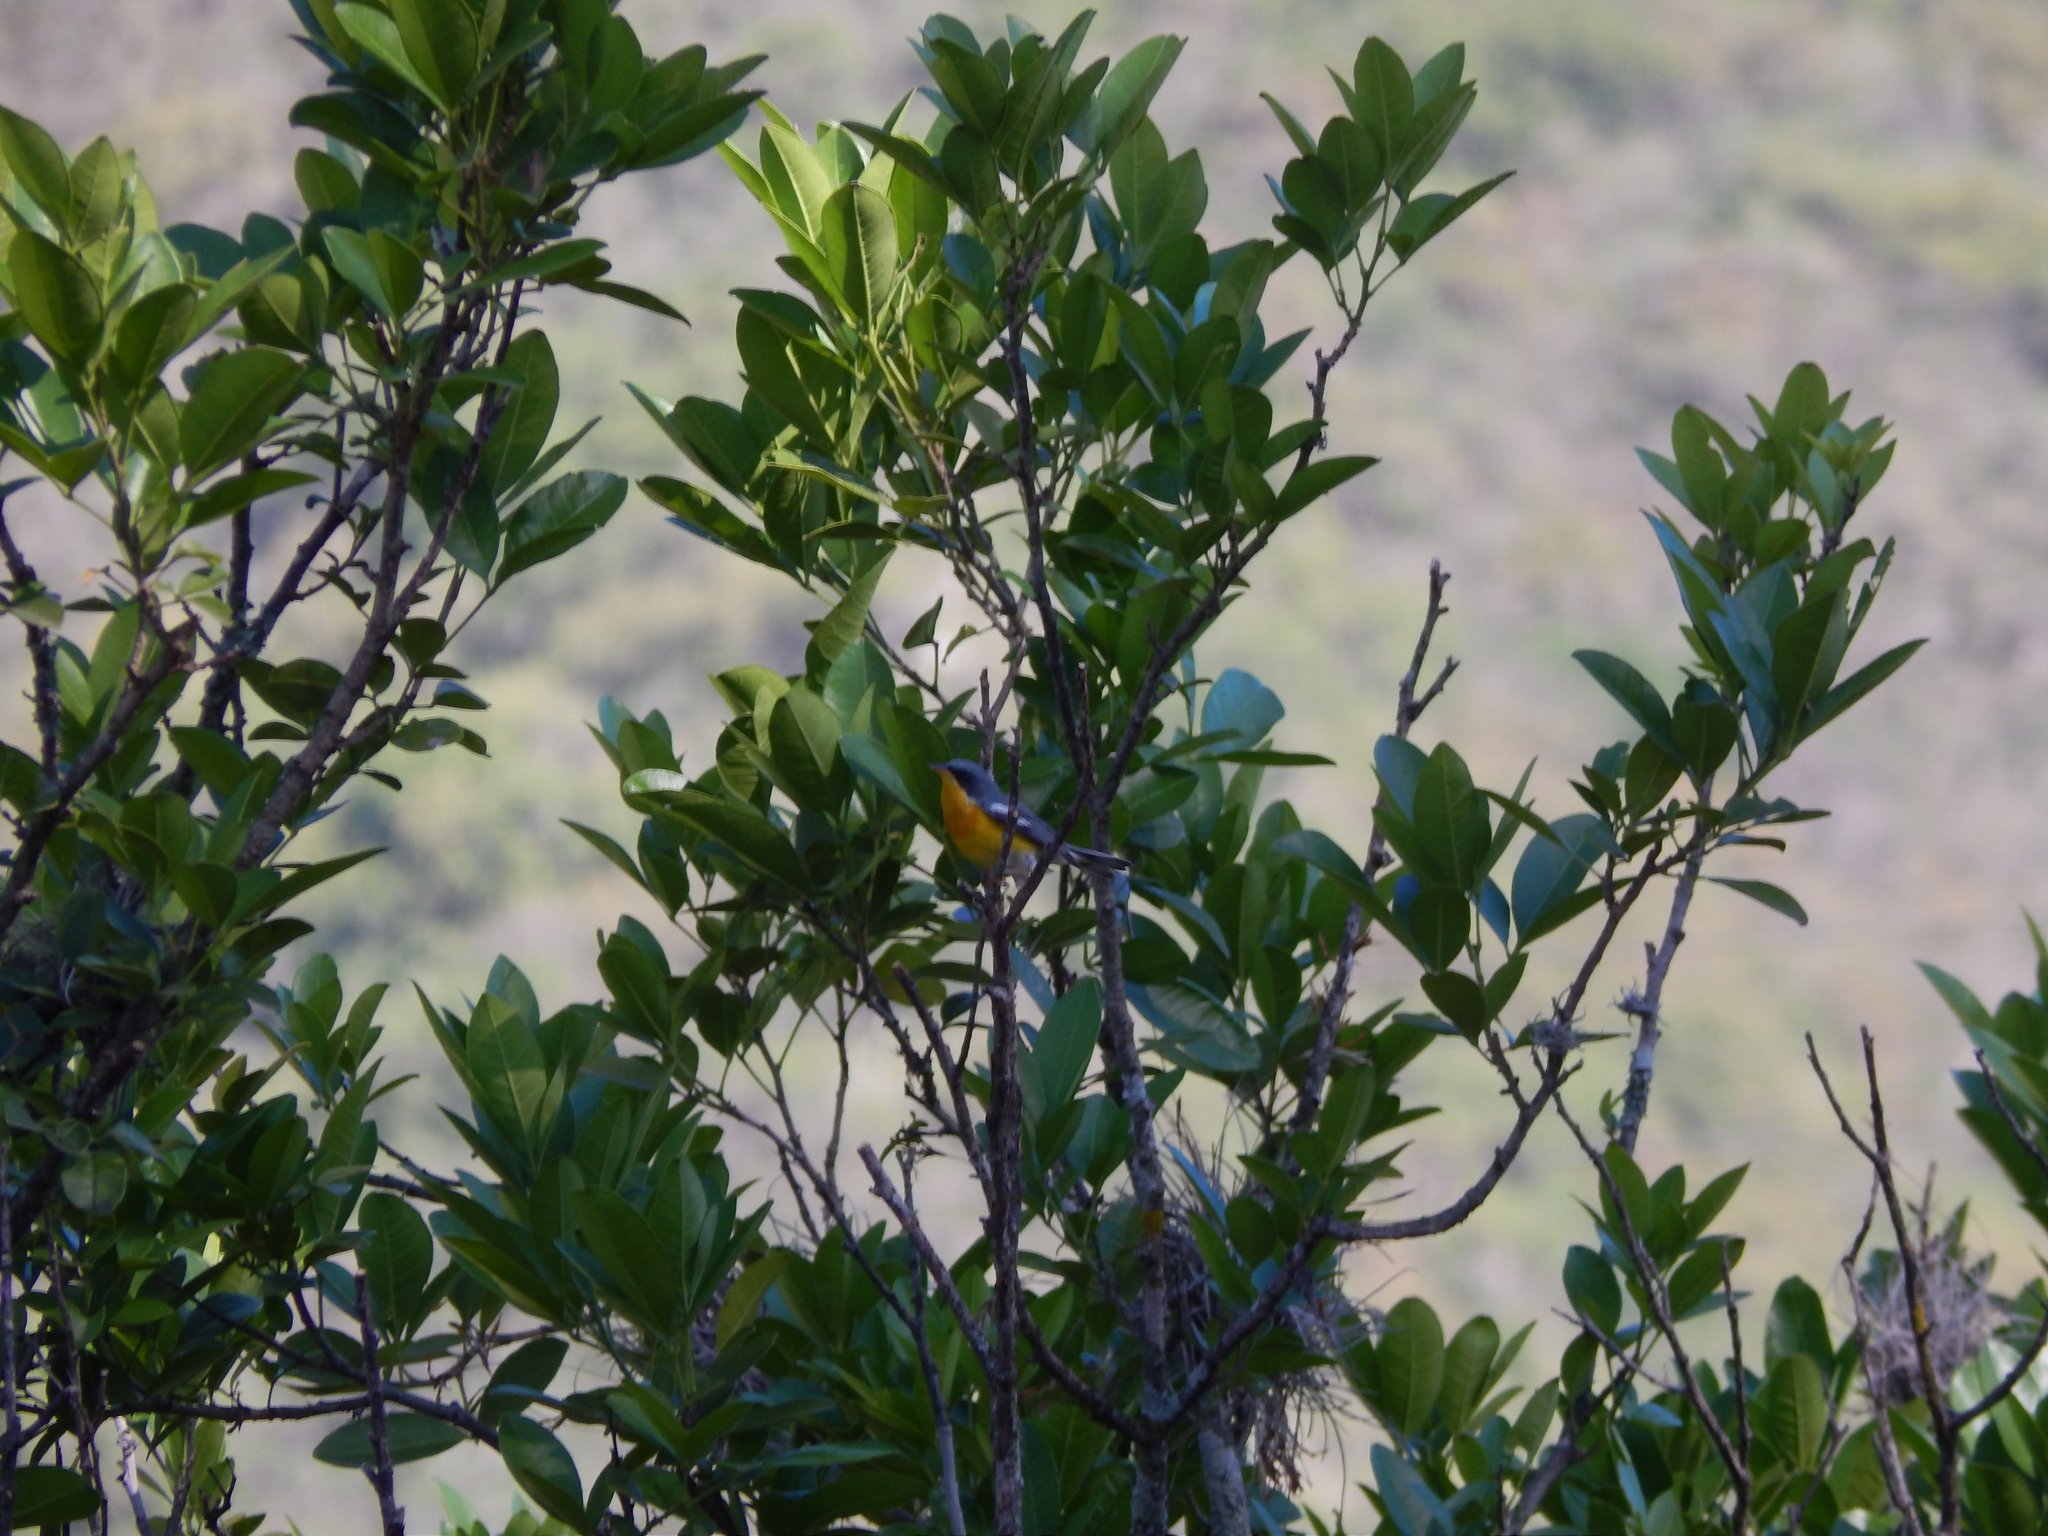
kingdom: Animalia
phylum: Chordata
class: Aves
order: Passeriformes
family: Parulidae
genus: Setophaga
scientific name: Setophaga pitiayumi
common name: Tropical parula
